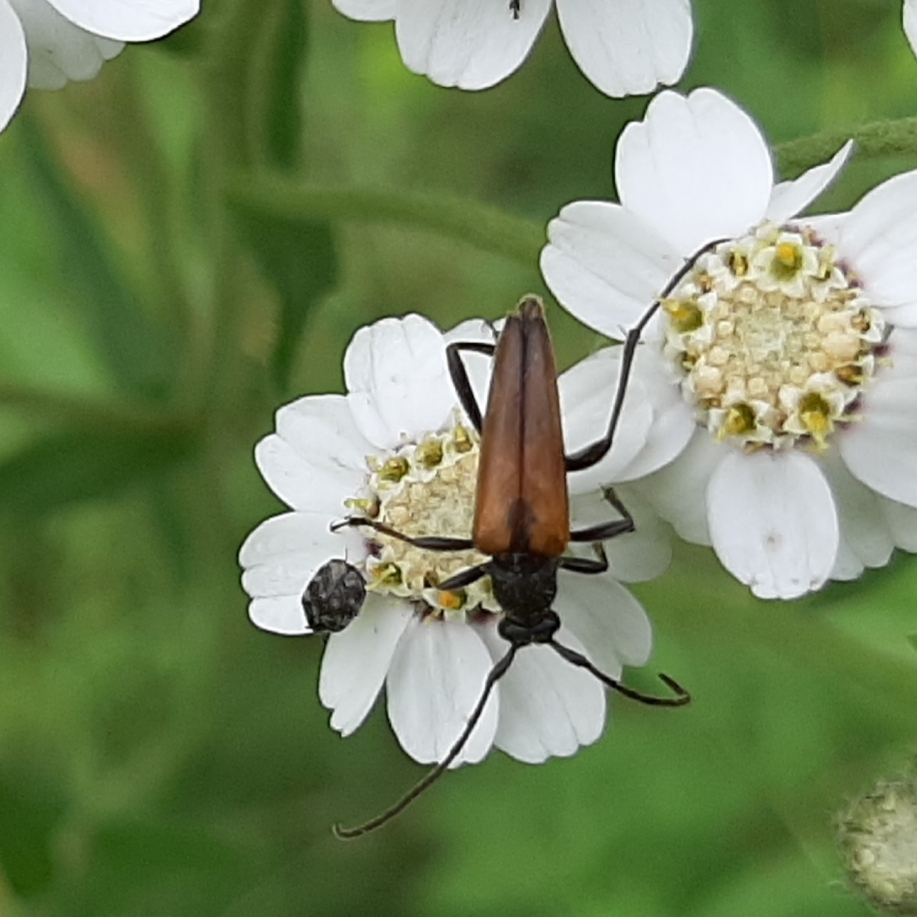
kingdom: Animalia
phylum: Arthropoda
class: Insecta
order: Coleoptera
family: Cerambycidae
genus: Stenurella
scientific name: Stenurella melanura
